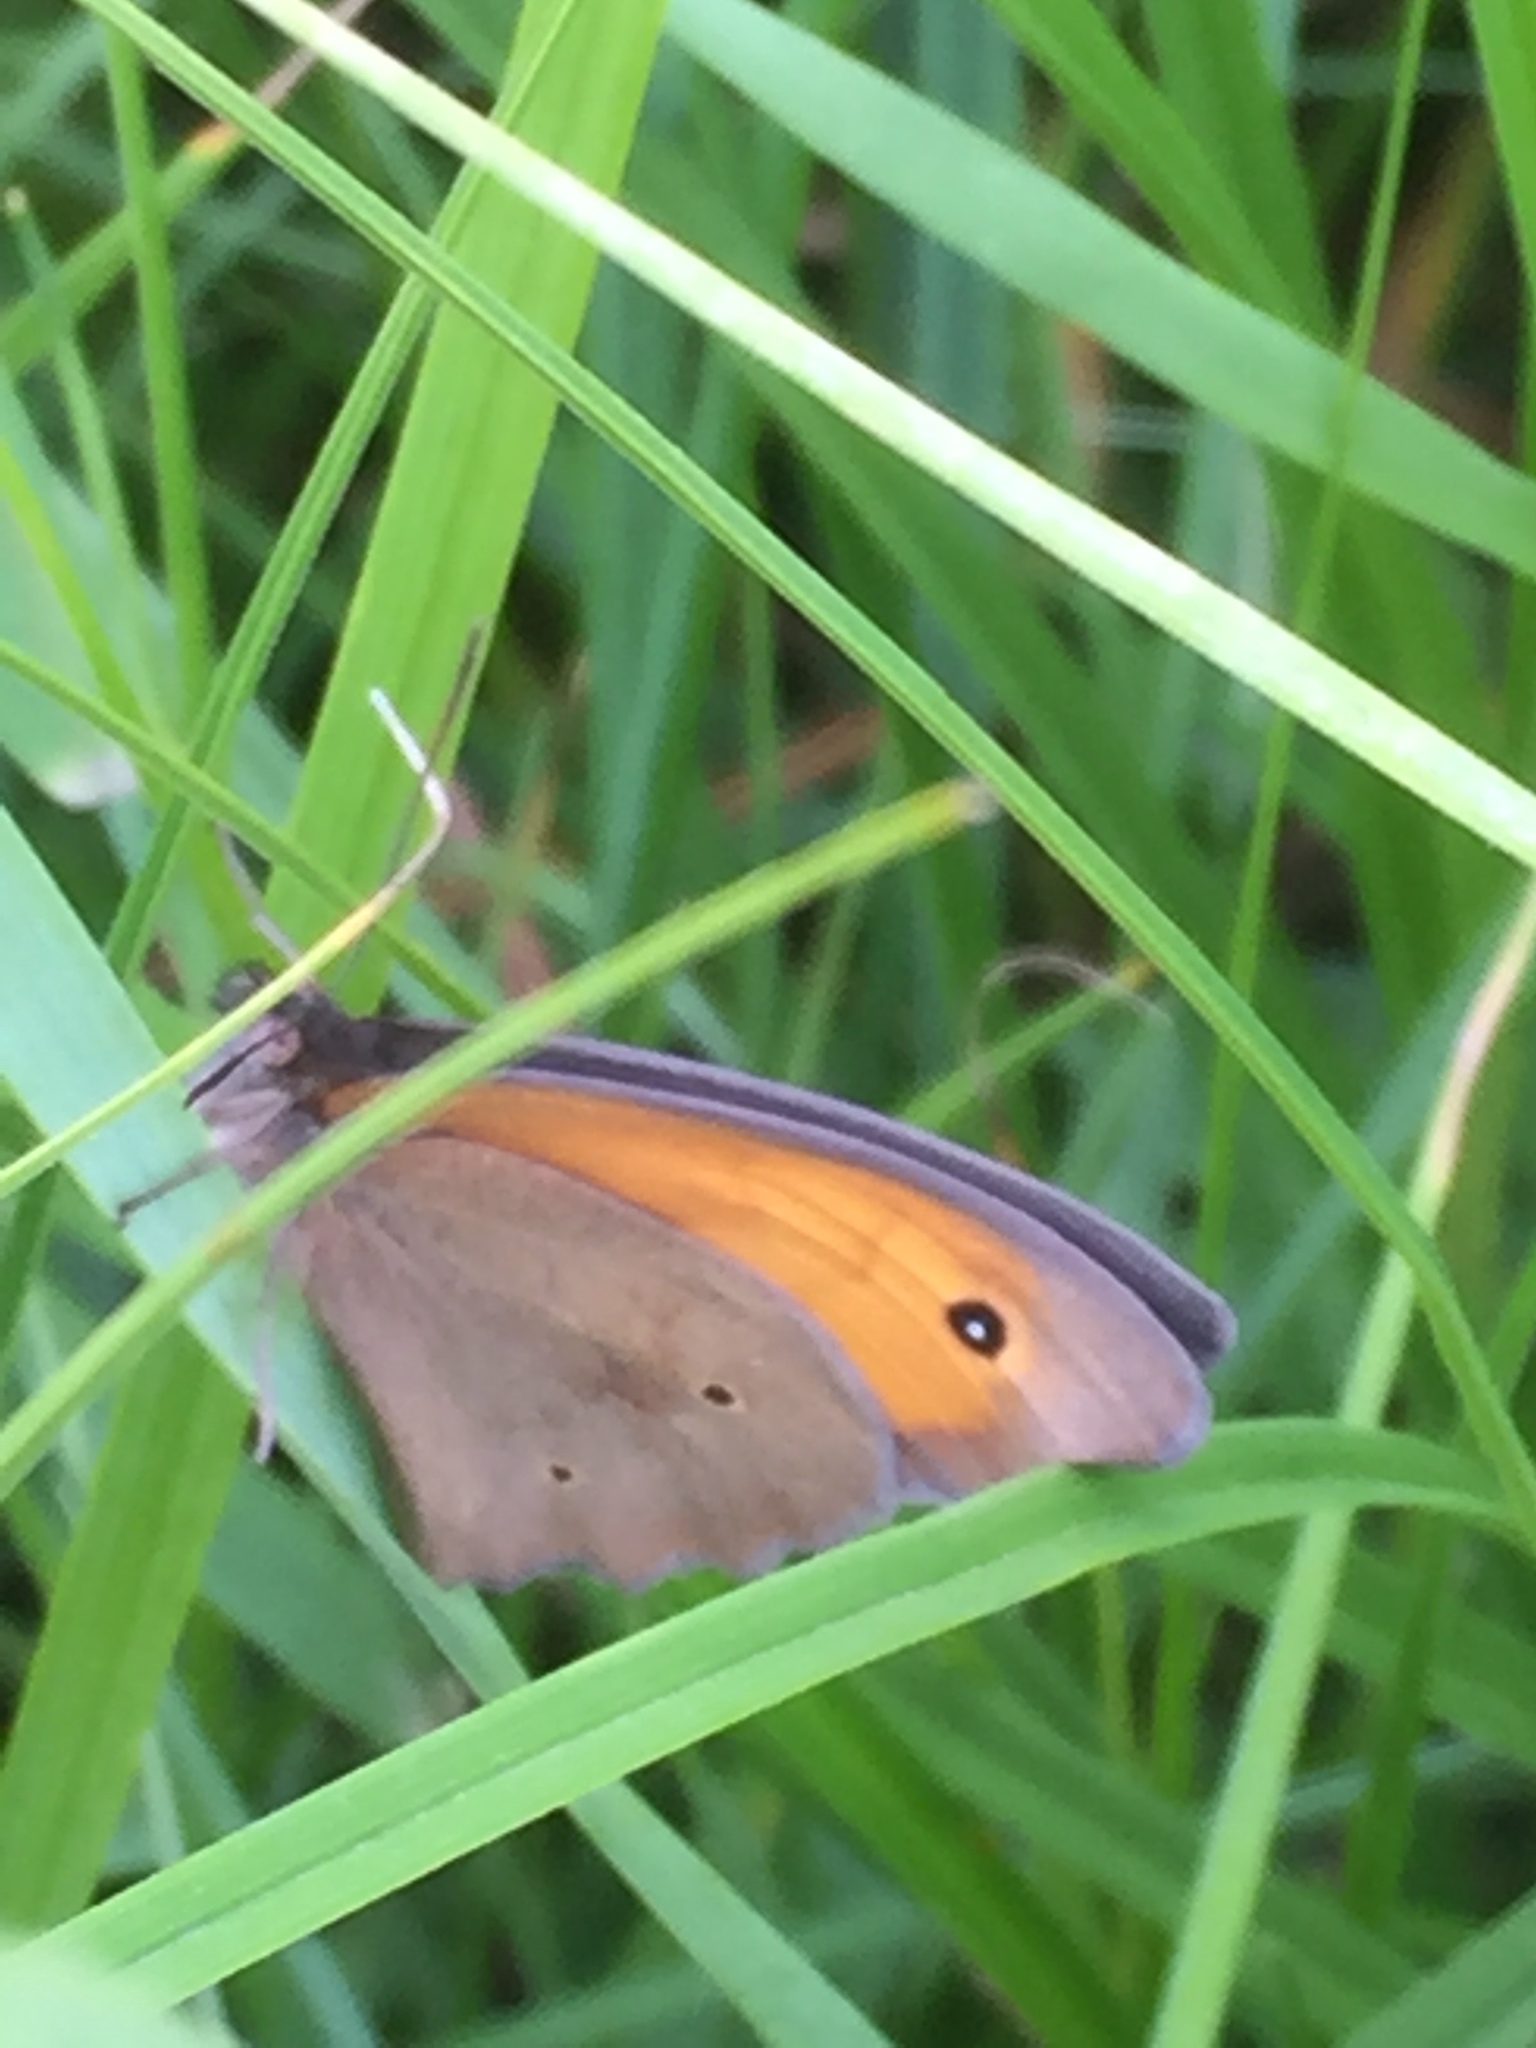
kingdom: Animalia
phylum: Arthropoda
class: Insecta
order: Lepidoptera
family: Nymphalidae
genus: Maniola
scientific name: Maniola jurtina
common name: Meadow brown
